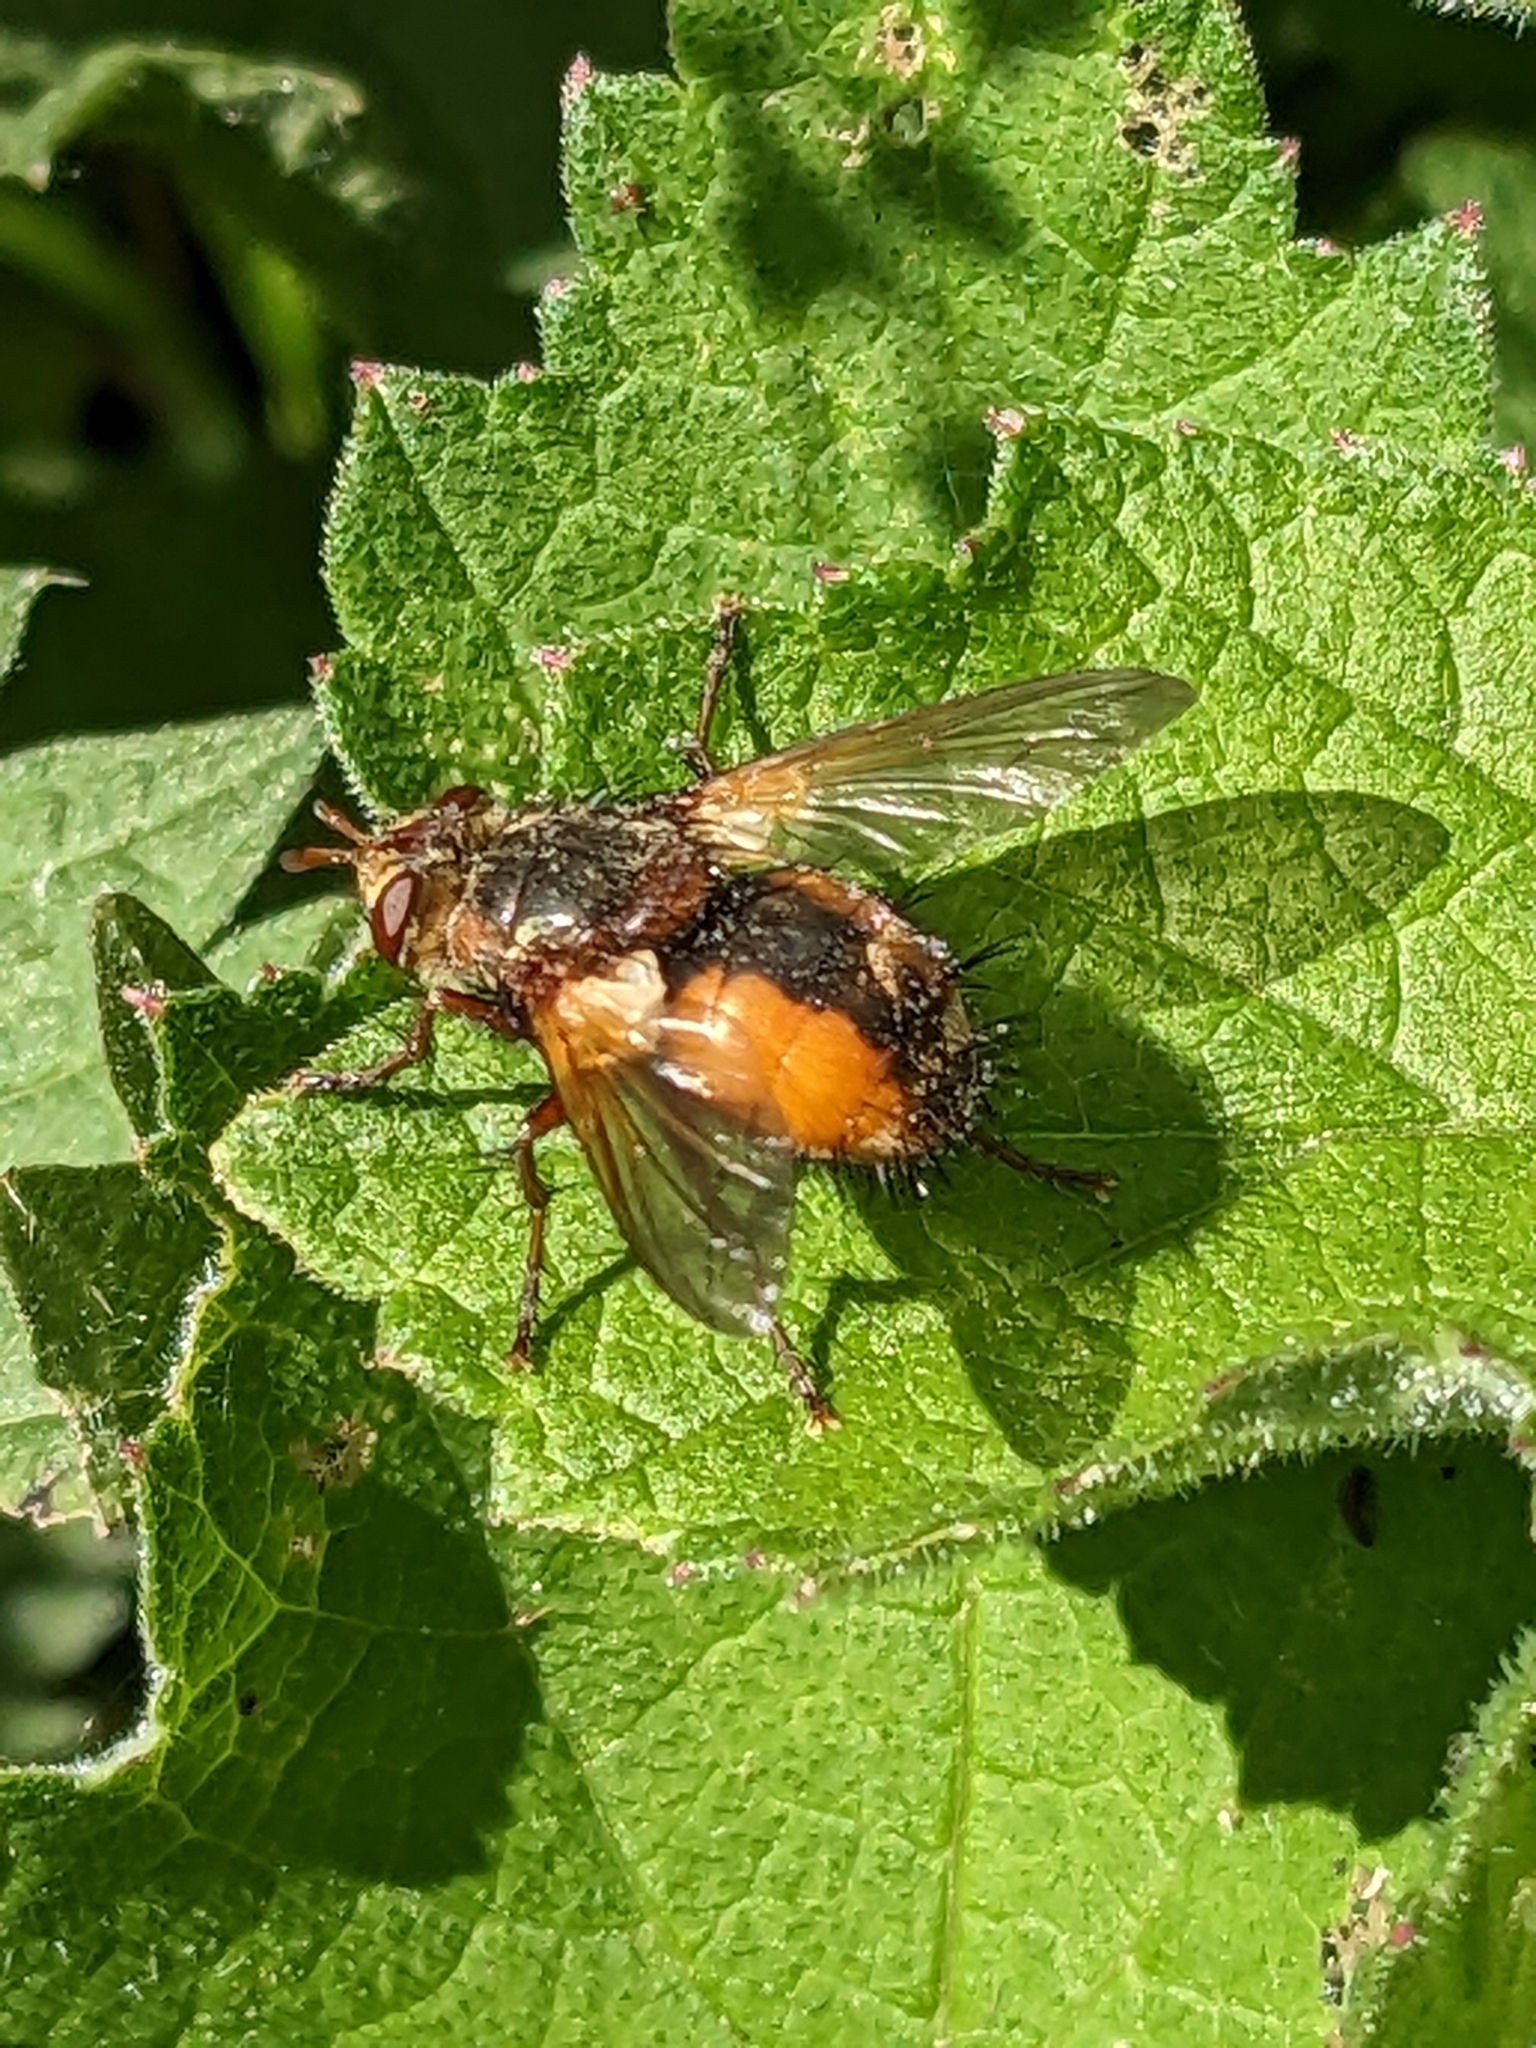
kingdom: Animalia
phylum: Arthropoda
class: Insecta
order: Diptera
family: Tachinidae
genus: Tachina
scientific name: Tachina fera
